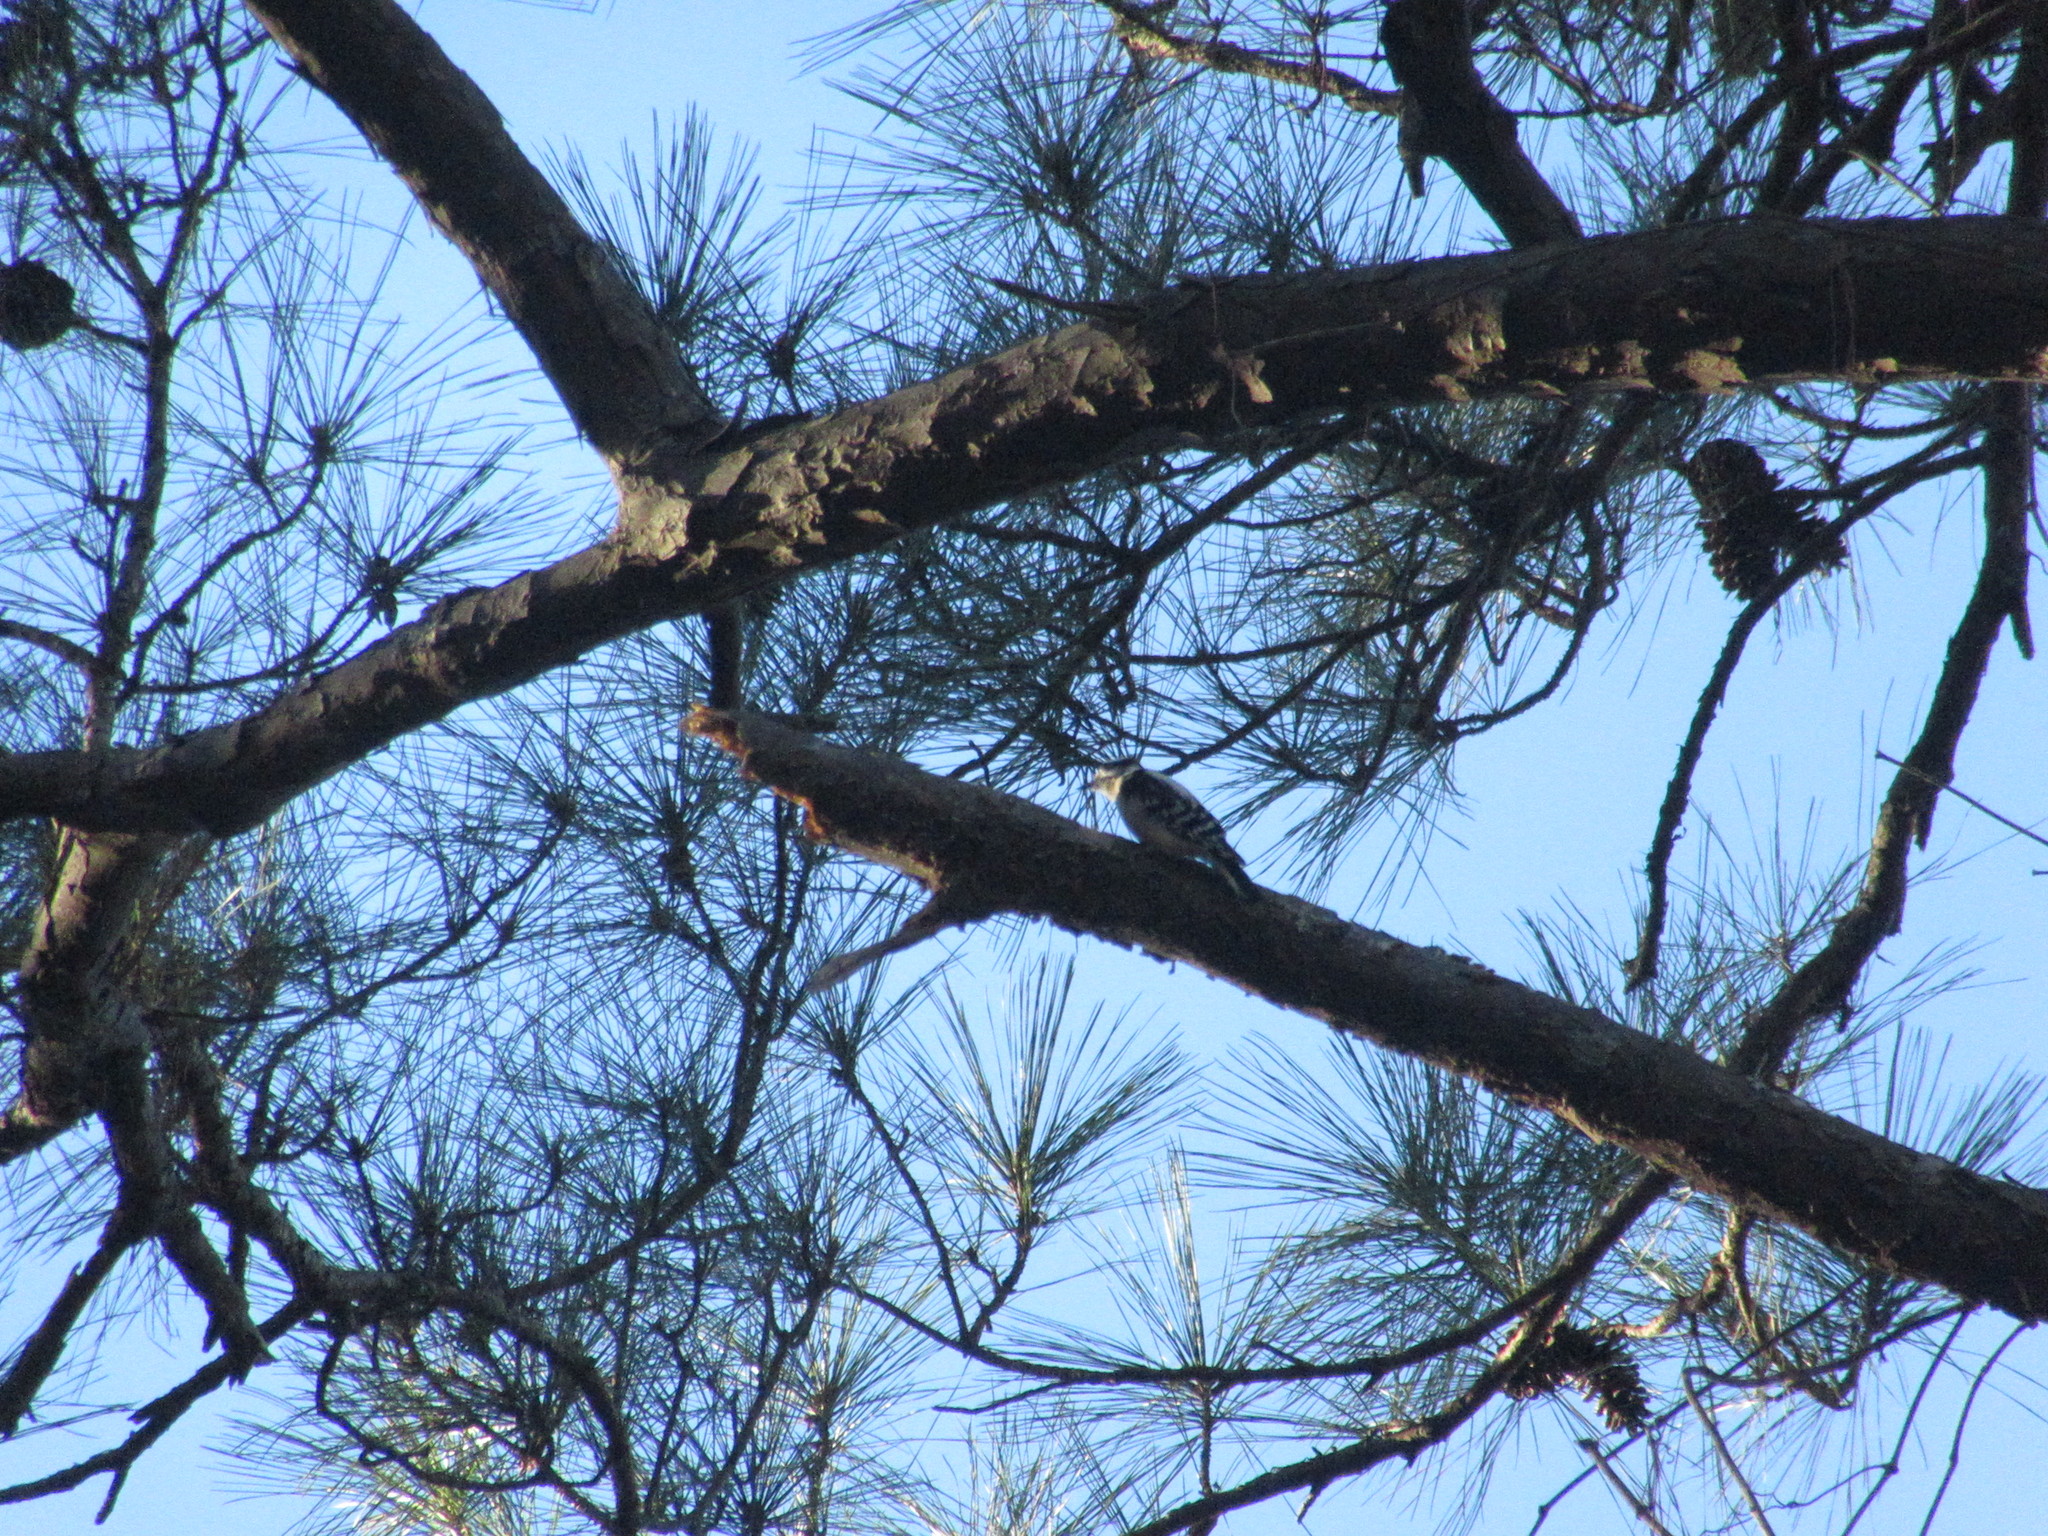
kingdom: Animalia
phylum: Chordata
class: Aves
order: Piciformes
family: Picidae
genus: Dryobates
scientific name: Dryobates pubescens
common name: Downy woodpecker
